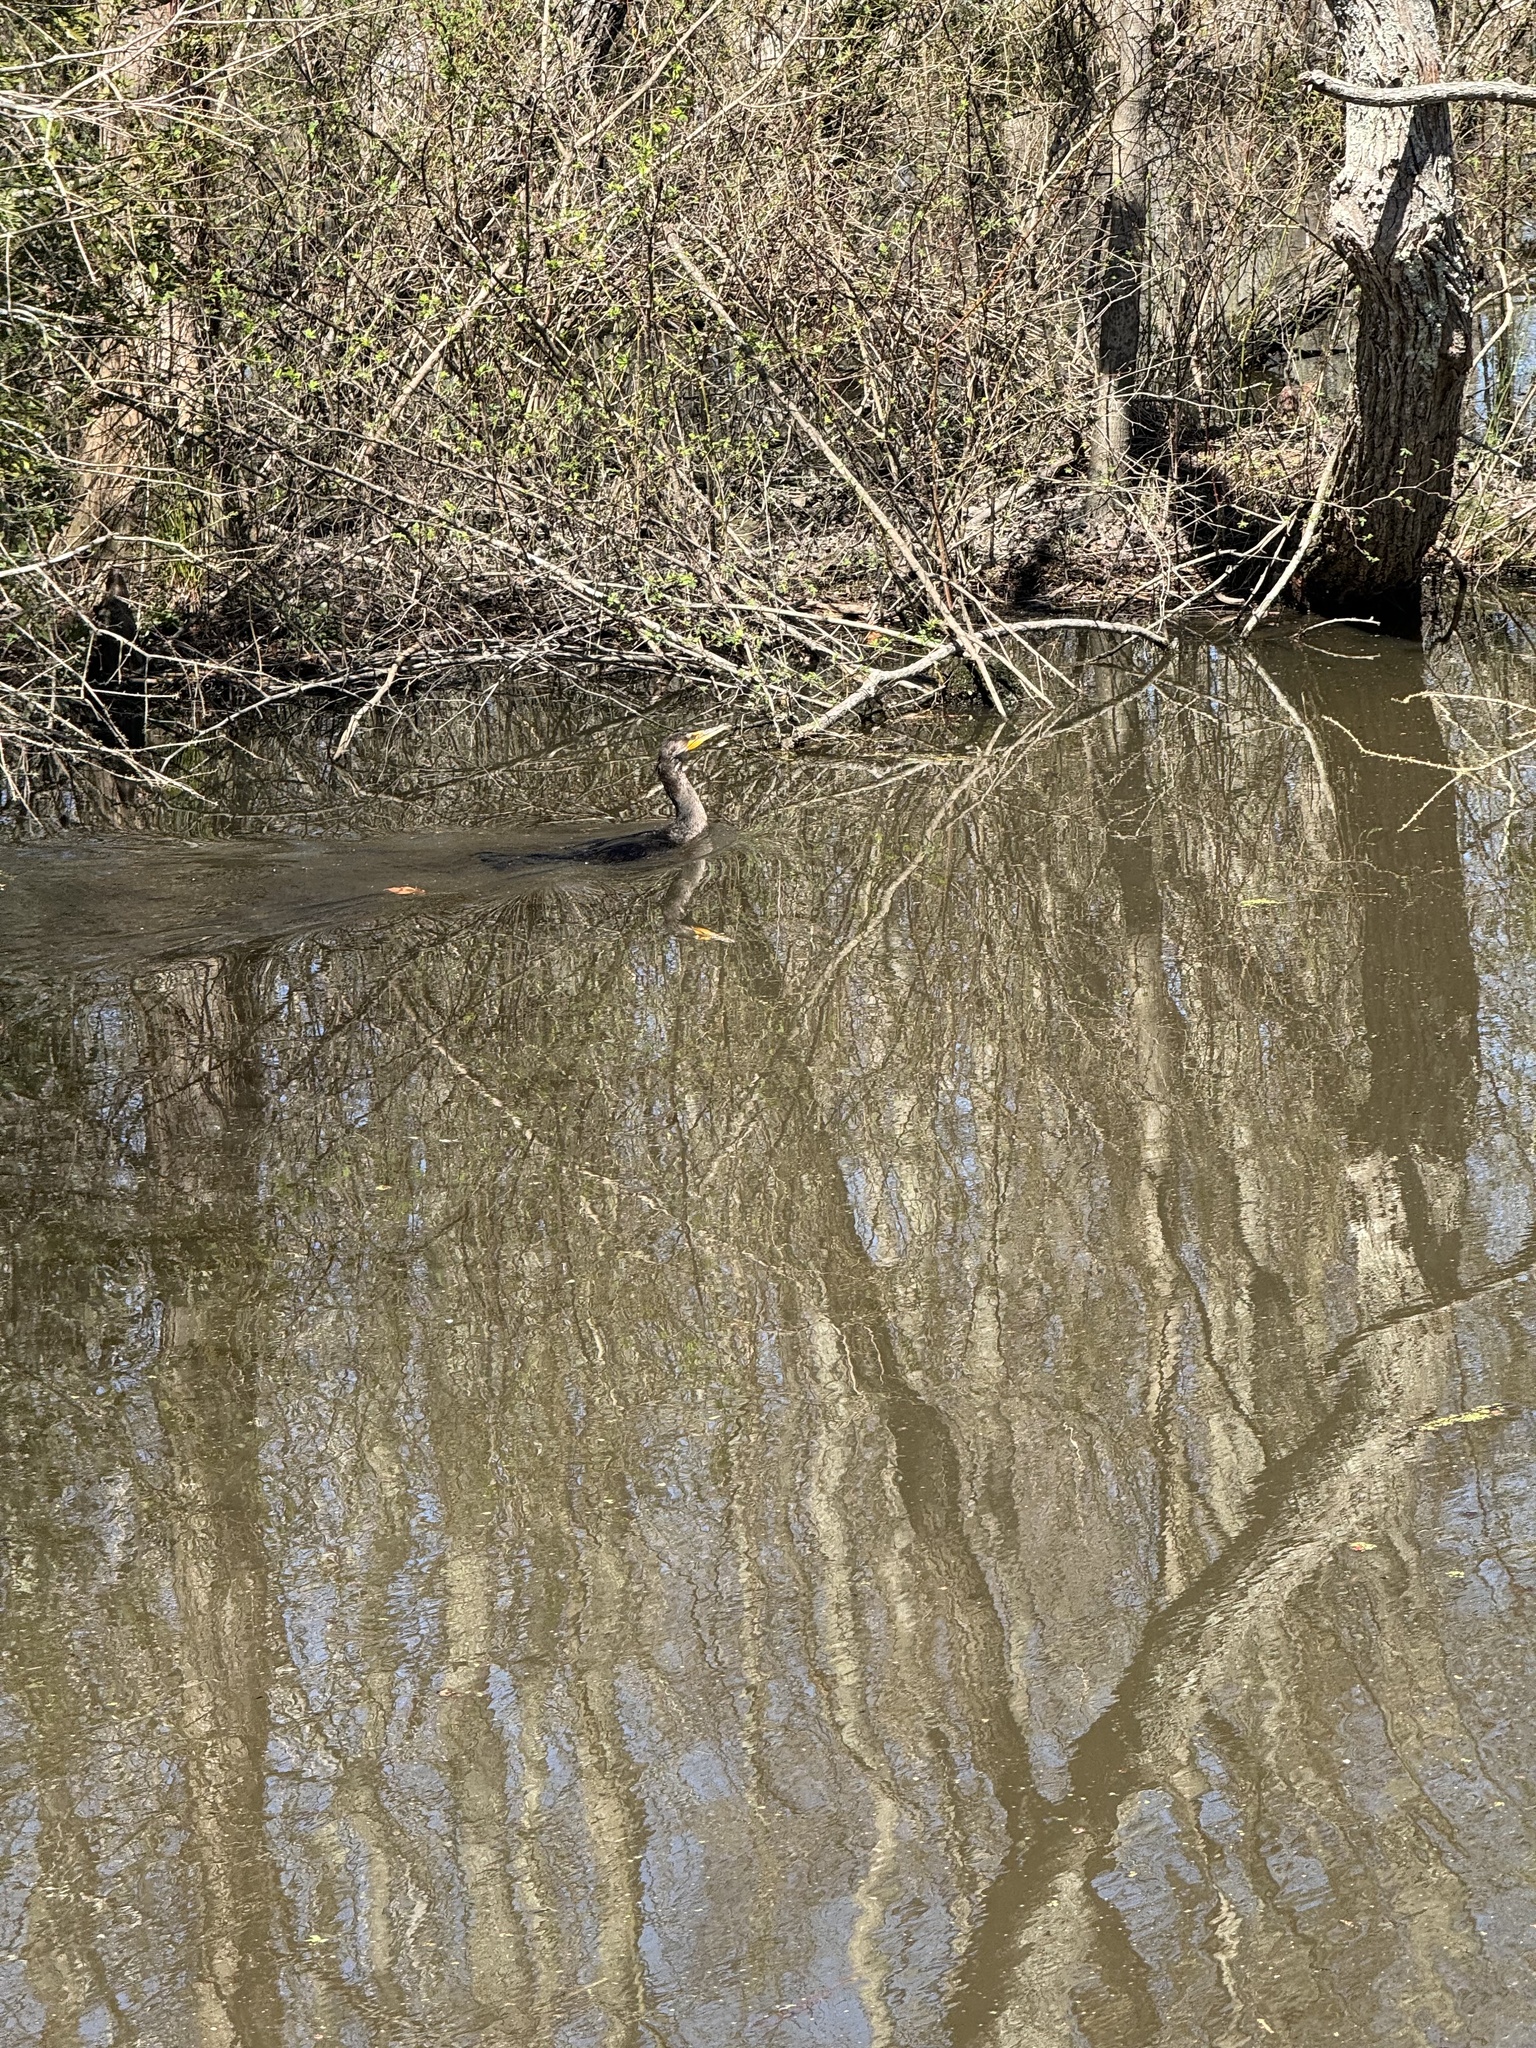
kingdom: Animalia
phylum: Chordata
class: Aves
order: Suliformes
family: Phalacrocoracidae
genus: Phalacrocorax
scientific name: Phalacrocorax auritus
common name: Double-crested cormorant
